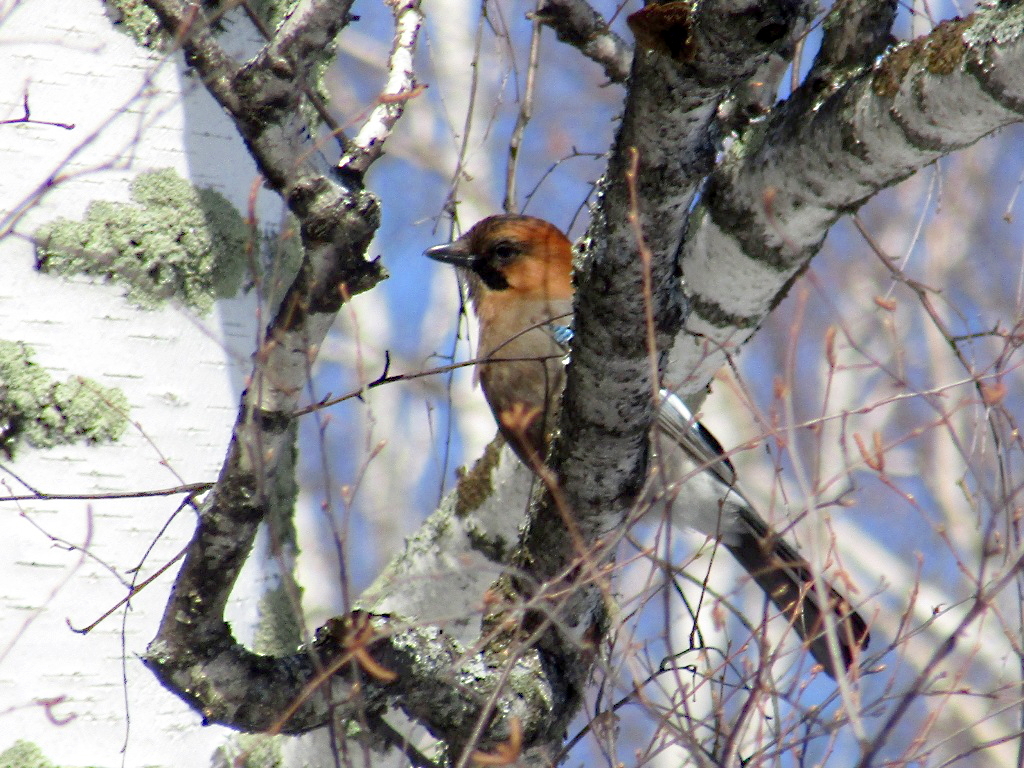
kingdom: Animalia
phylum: Chordata
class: Aves
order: Passeriformes
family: Corvidae
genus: Garrulus
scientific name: Garrulus glandarius
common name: Eurasian jay
